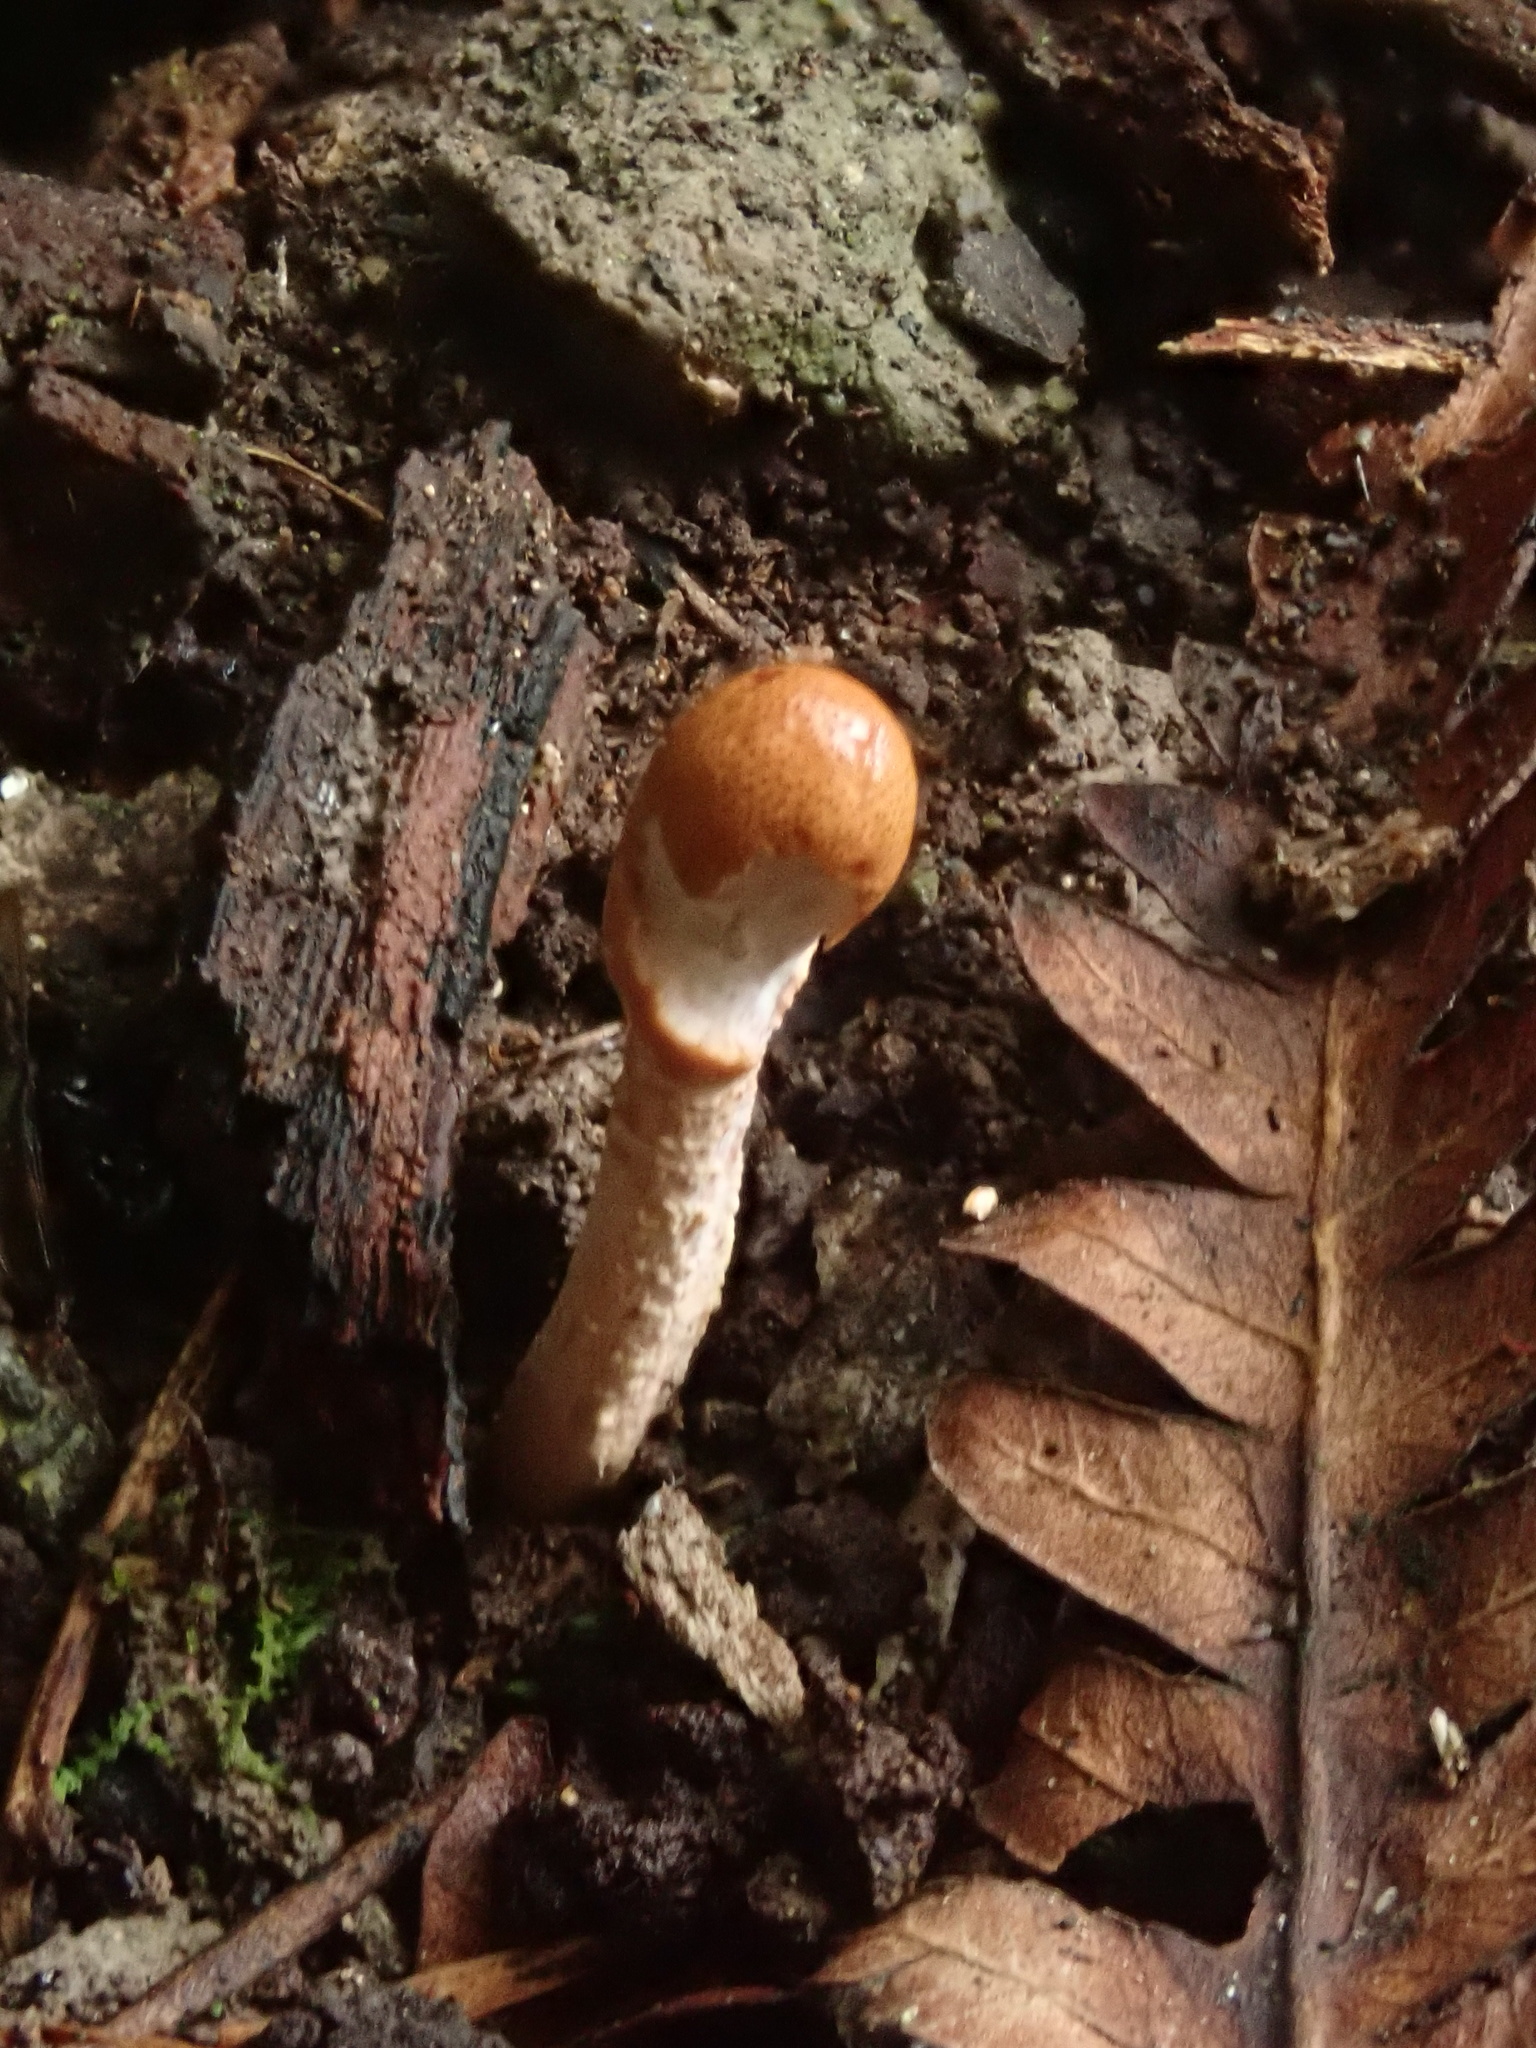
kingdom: Fungi
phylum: Ascomycota
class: Sordariomycetes
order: Hypocreales
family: Cordycipitaceae
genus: Cordyceps
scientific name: Cordyceps meneristitis
